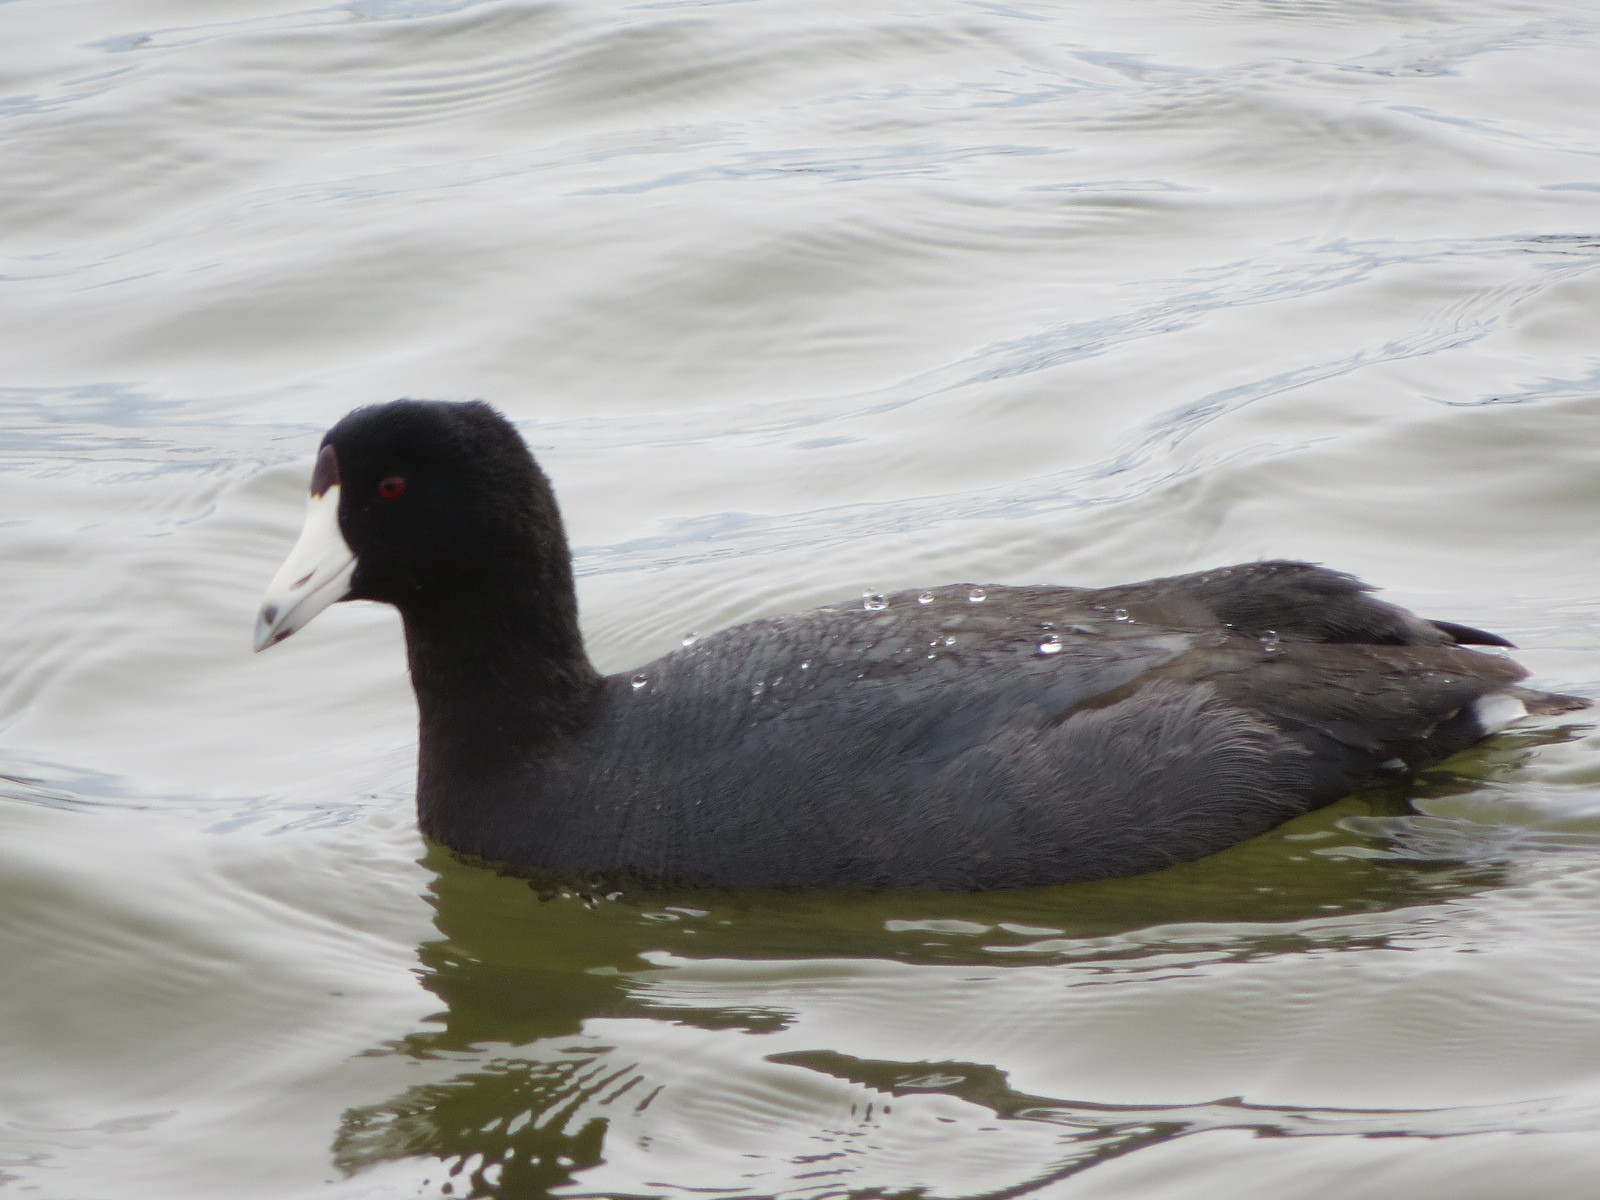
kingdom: Animalia
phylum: Chordata
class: Aves
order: Gruiformes
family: Rallidae
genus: Fulica
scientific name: Fulica americana
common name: American coot
